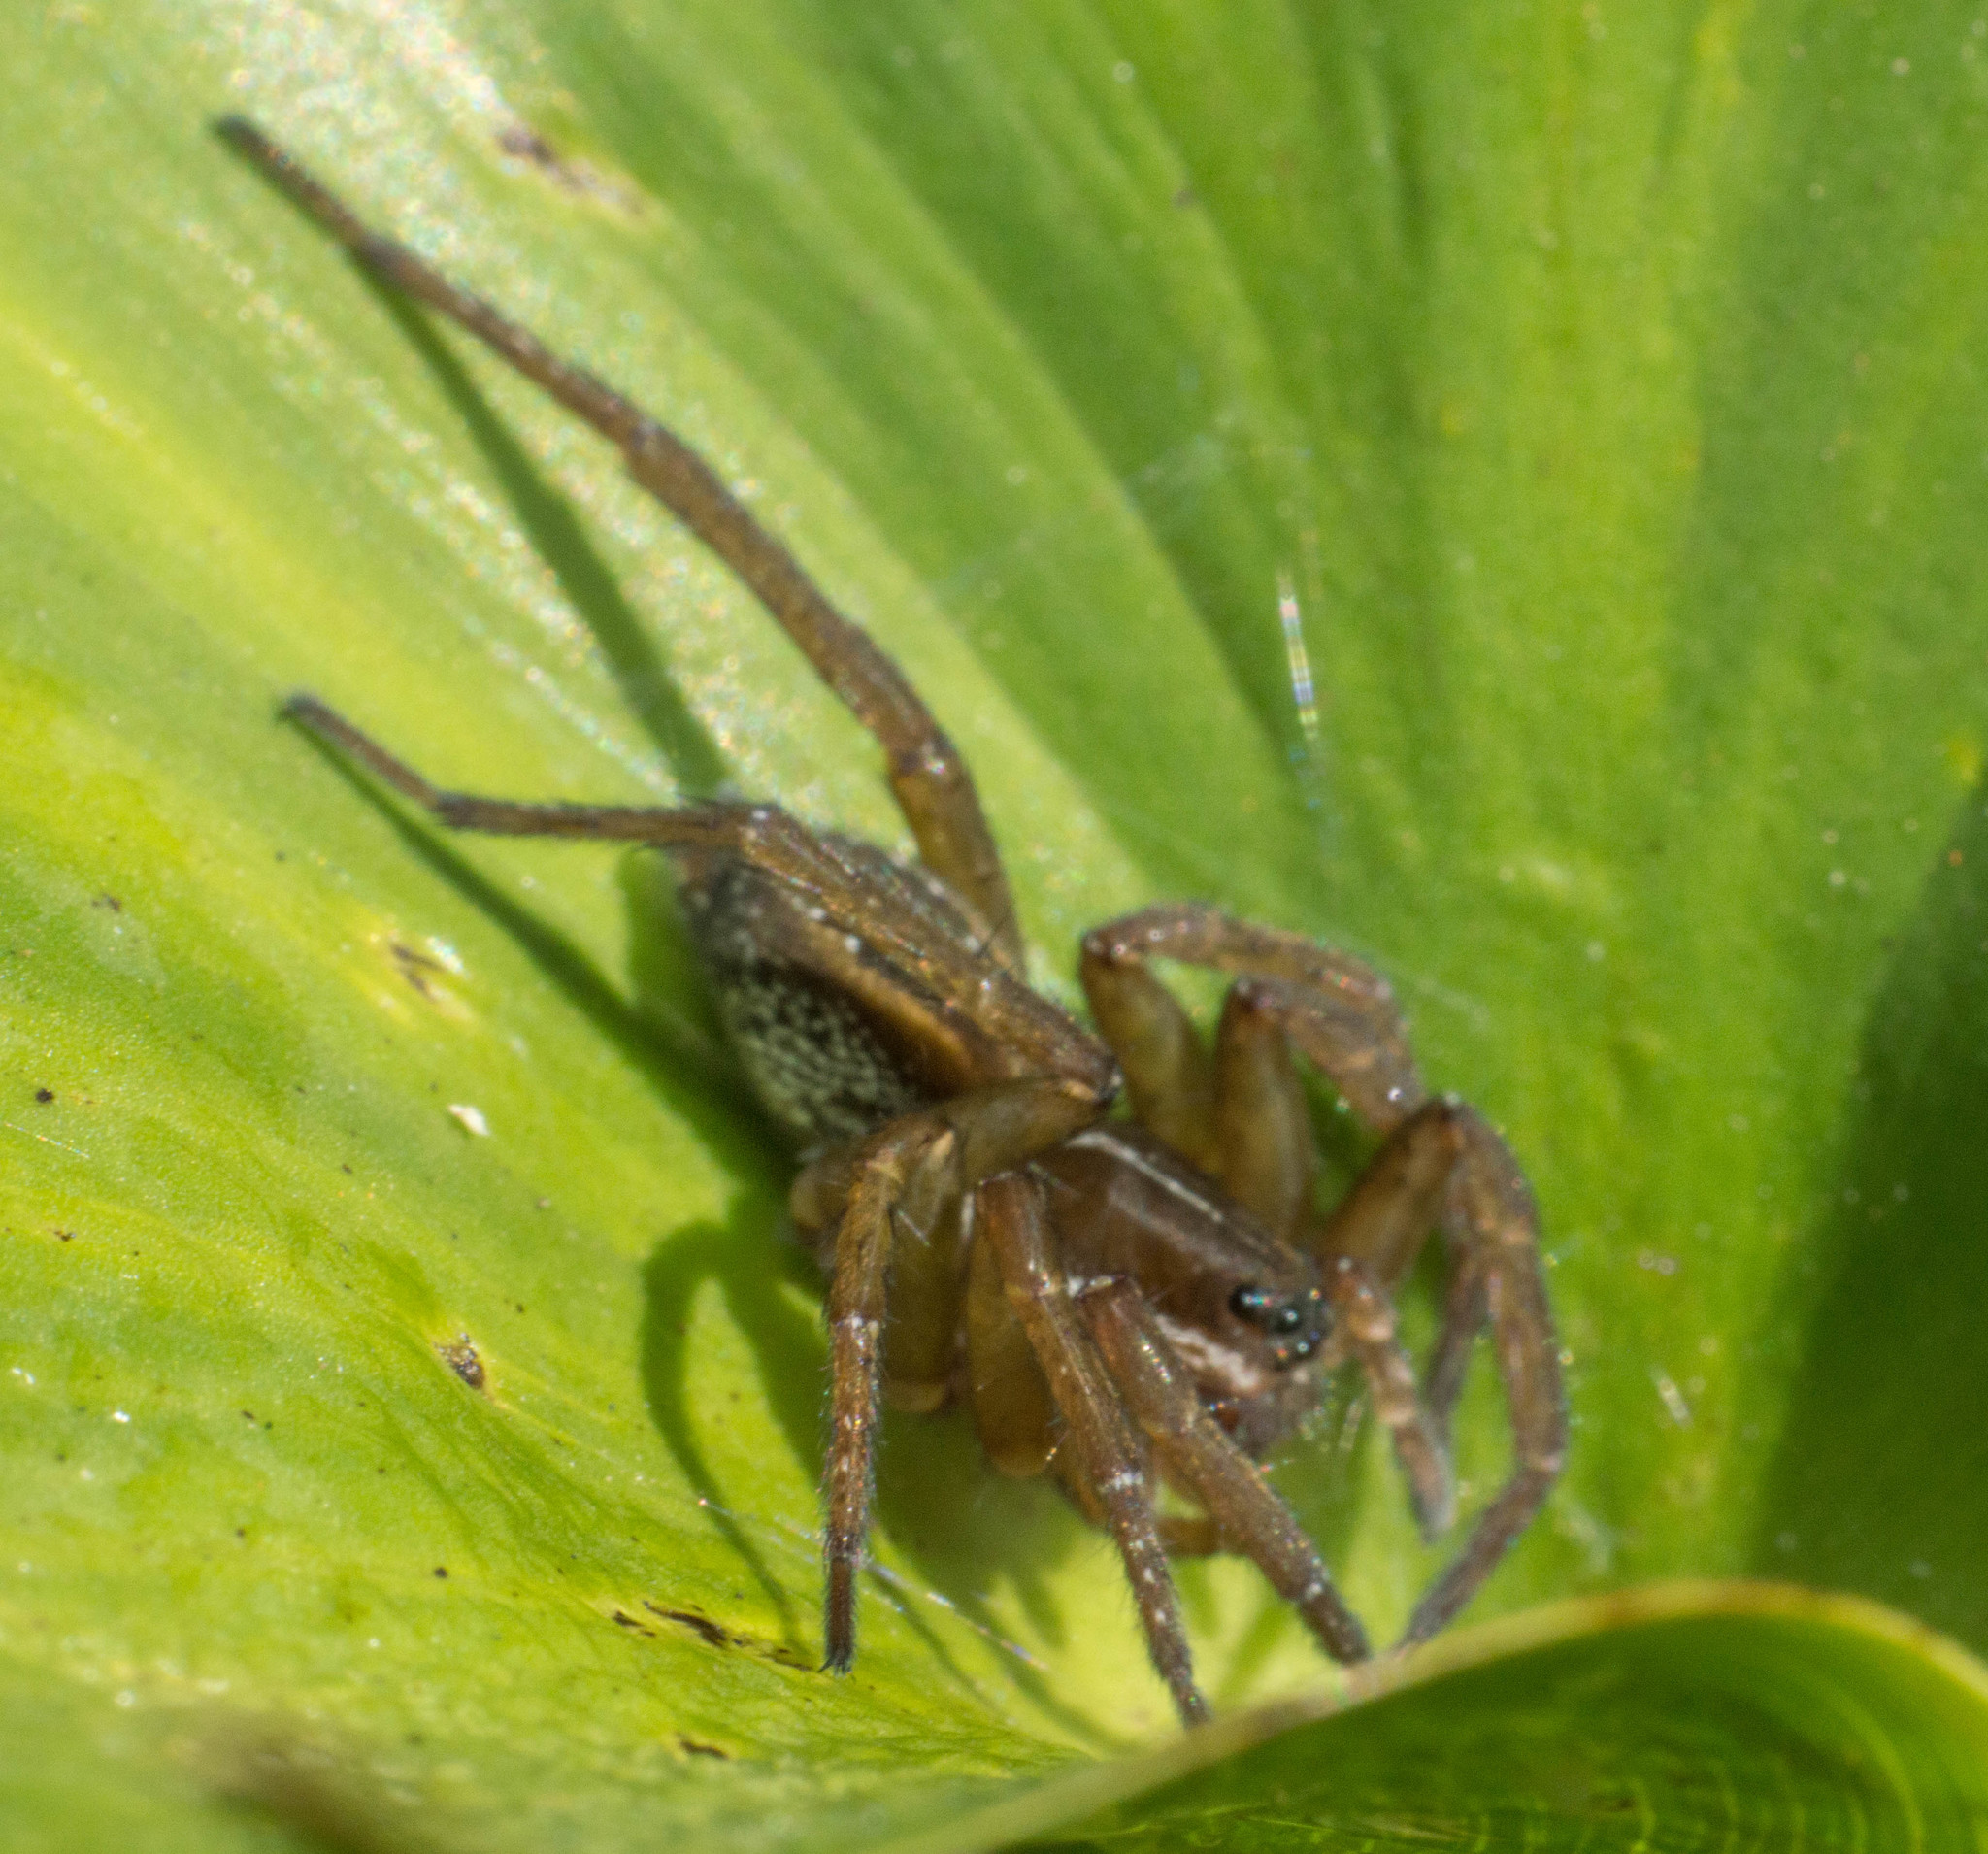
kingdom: Animalia
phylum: Arthropoda
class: Arachnida
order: Araneae
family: Lycosidae
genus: Diapontia
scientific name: Diapontia uruguayensis
